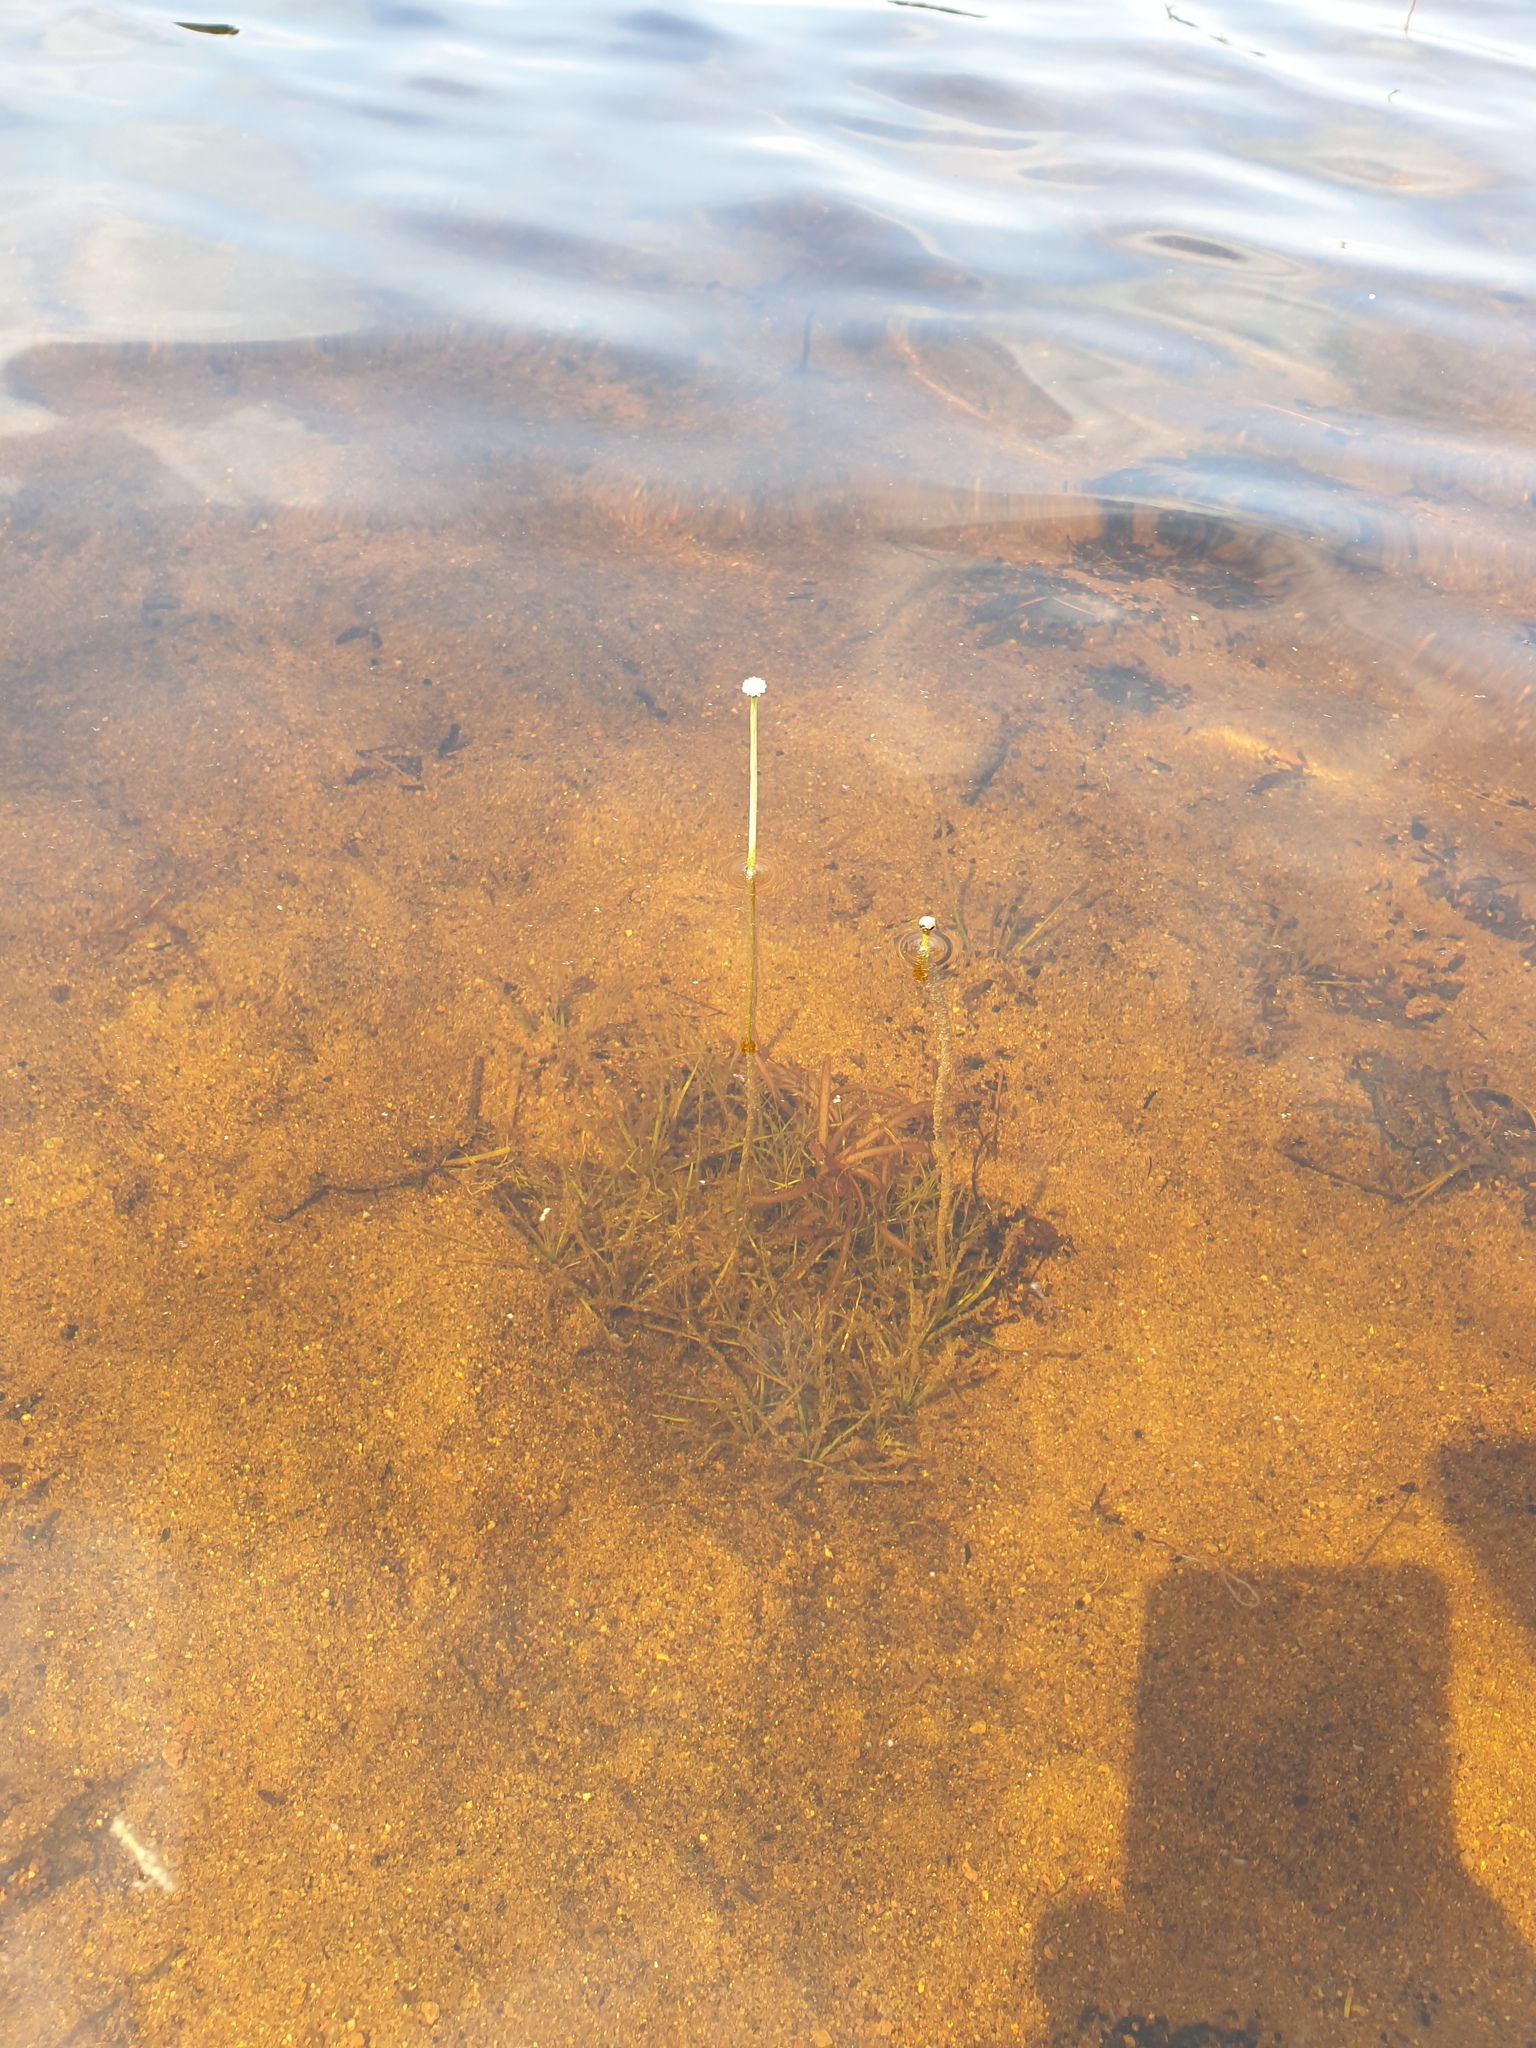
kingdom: Plantae
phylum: Tracheophyta
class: Liliopsida
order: Poales
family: Eriocaulaceae
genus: Eriocaulon
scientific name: Eriocaulon aquaticum
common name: Pipewort
